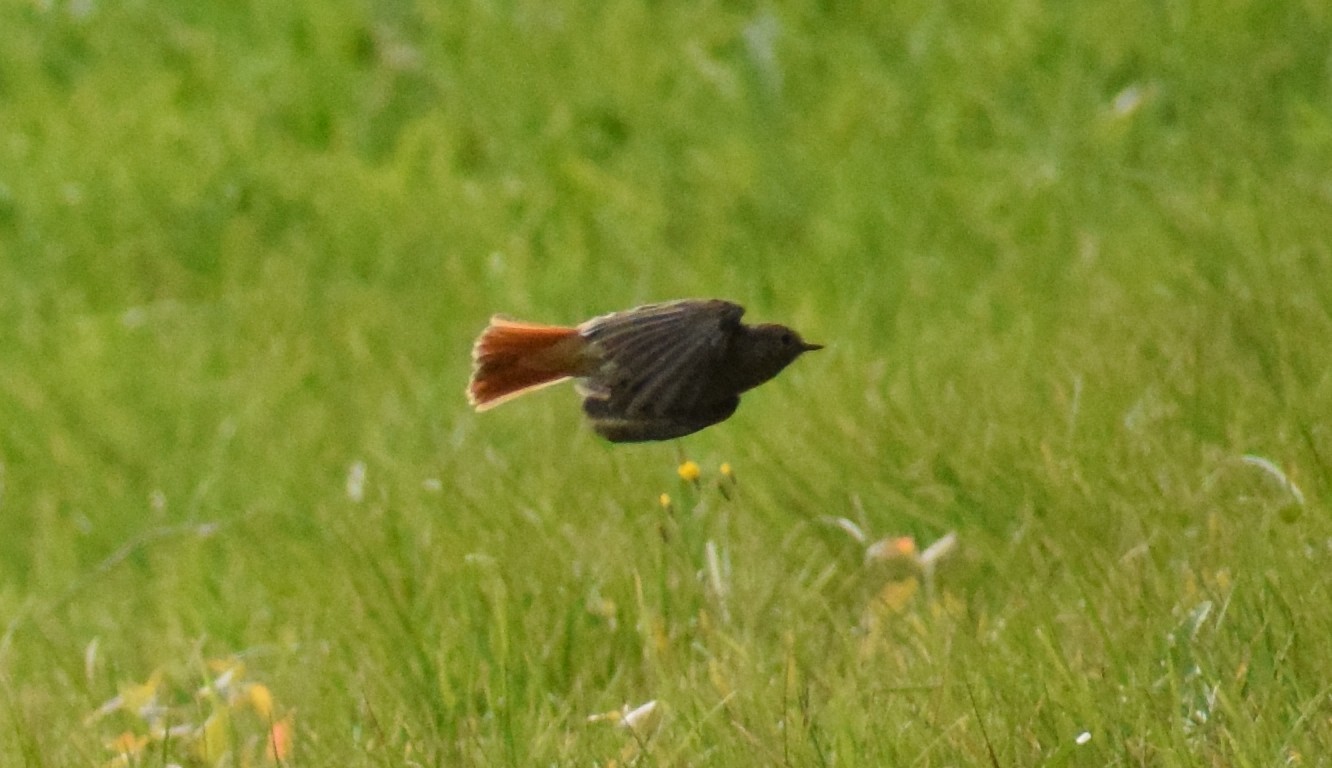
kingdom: Animalia
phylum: Chordata
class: Aves
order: Passeriformes
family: Muscicapidae
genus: Phoenicurus
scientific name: Phoenicurus ochruros
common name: Black redstart
